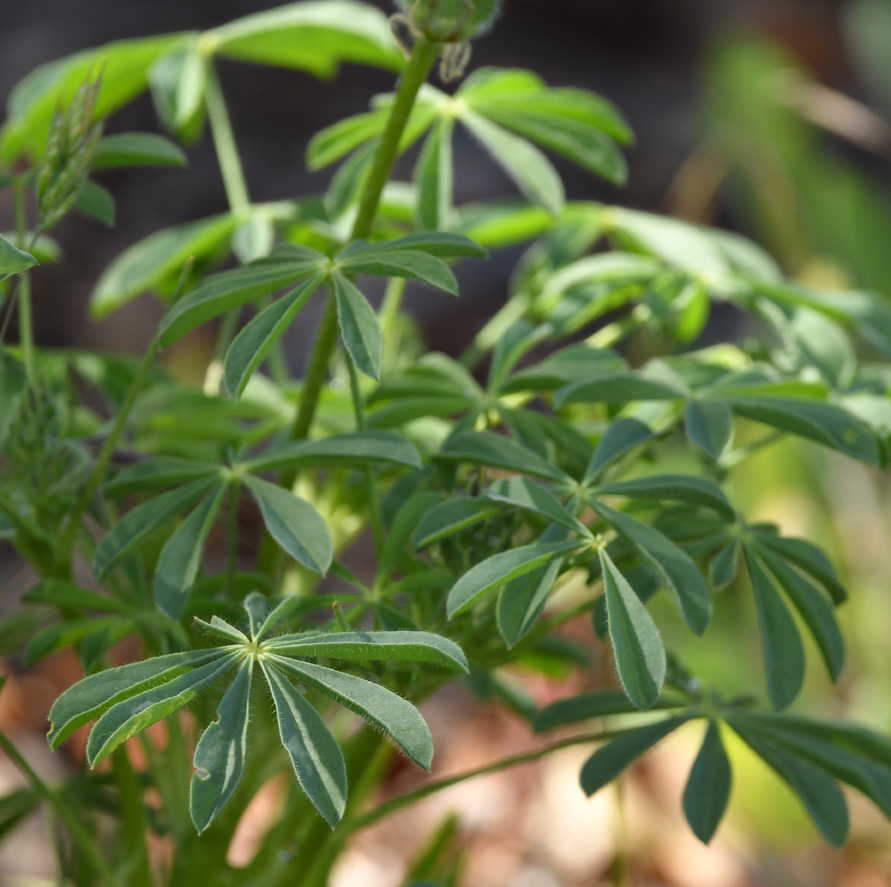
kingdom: Plantae
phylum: Tracheophyta
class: Magnoliopsida
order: Fabales
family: Fabaceae
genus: Lupinus
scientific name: Lupinus microcarpus
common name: Chick lupine
